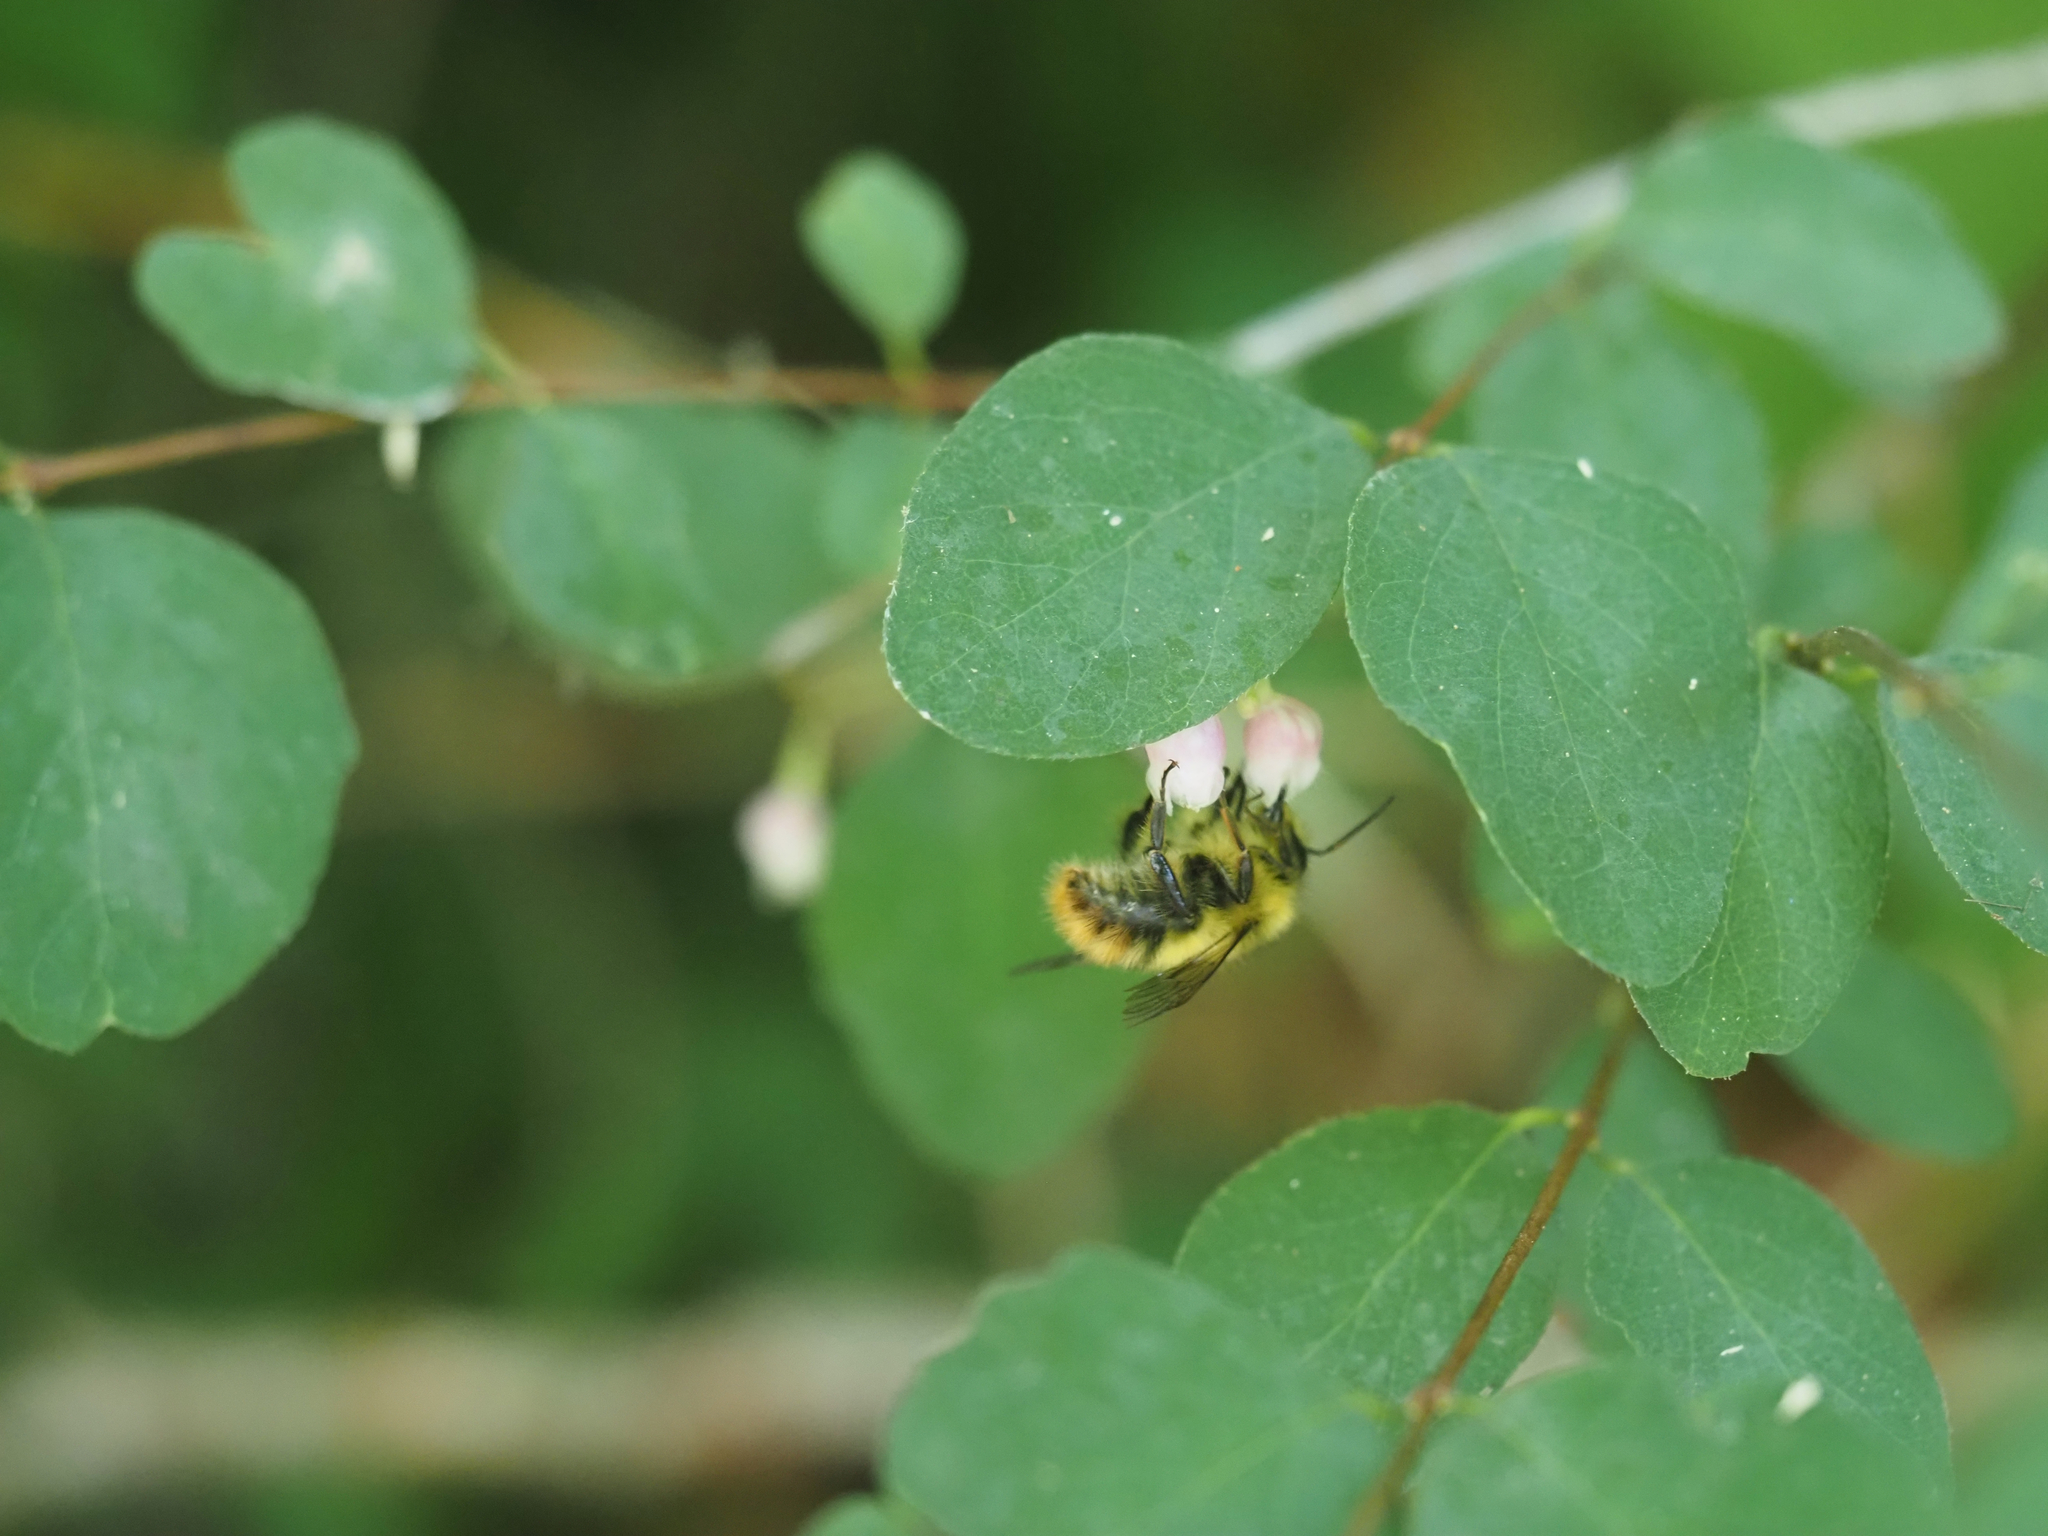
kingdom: Animalia
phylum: Arthropoda
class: Insecta
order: Hymenoptera
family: Apidae
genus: Bombus
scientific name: Bombus mixtus
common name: Fuzzy-horned bumble bee
